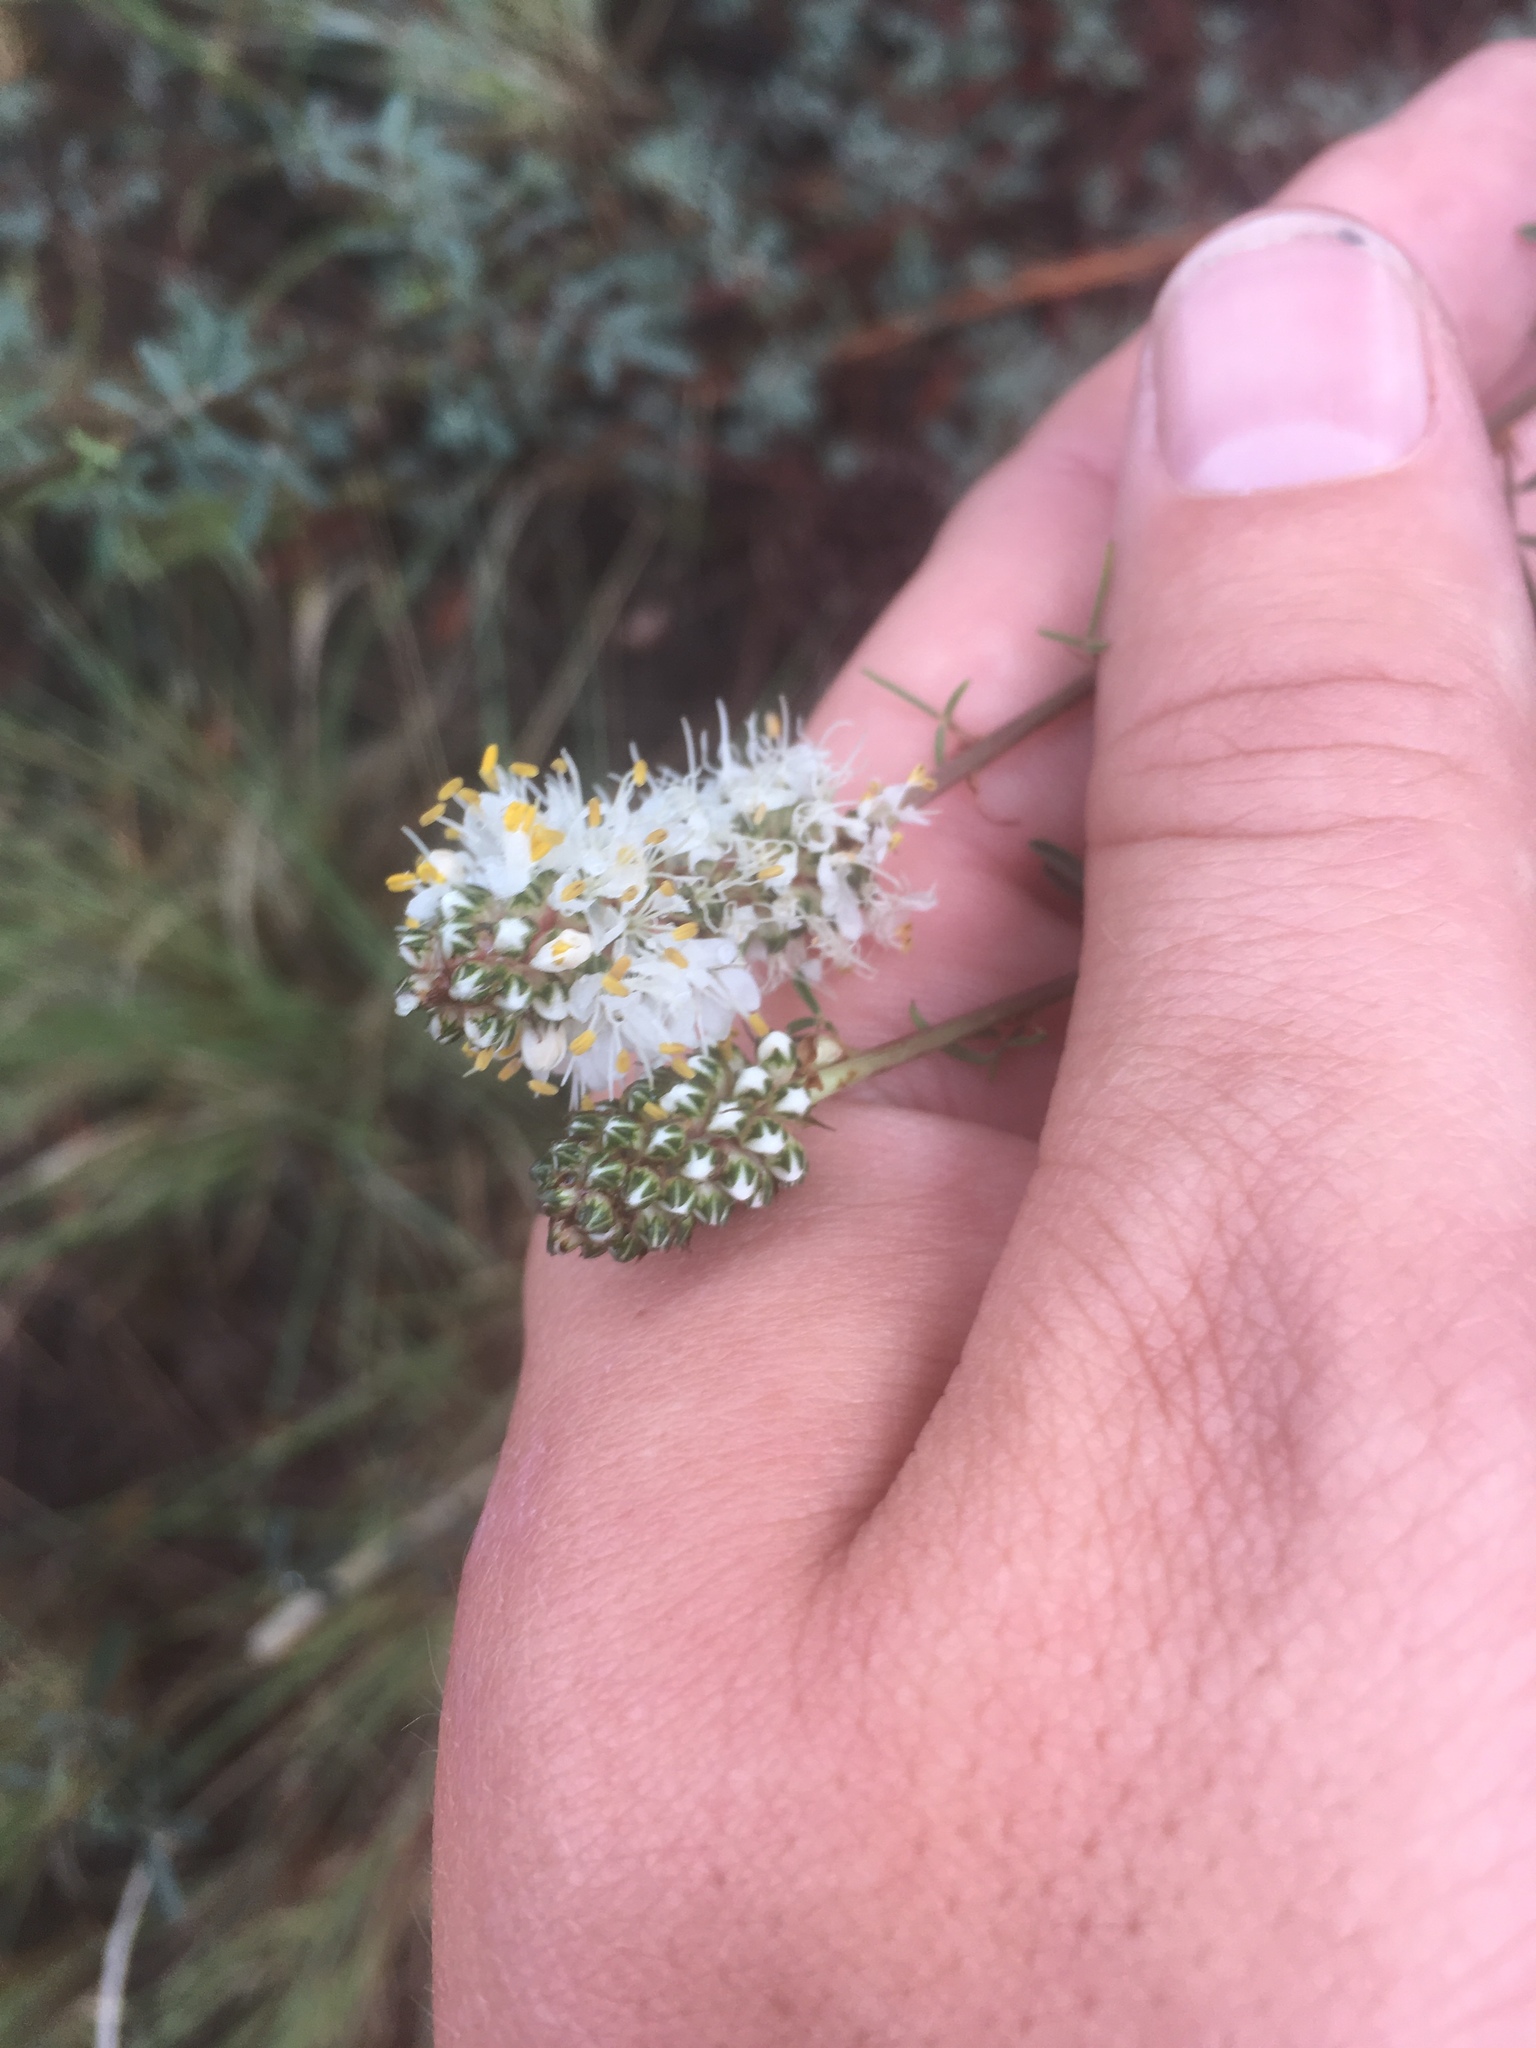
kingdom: Plantae
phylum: Tracheophyta
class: Magnoliopsida
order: Fabales
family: Fabaceae
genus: Dalea
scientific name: Dalea candida
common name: White prairie-clover
